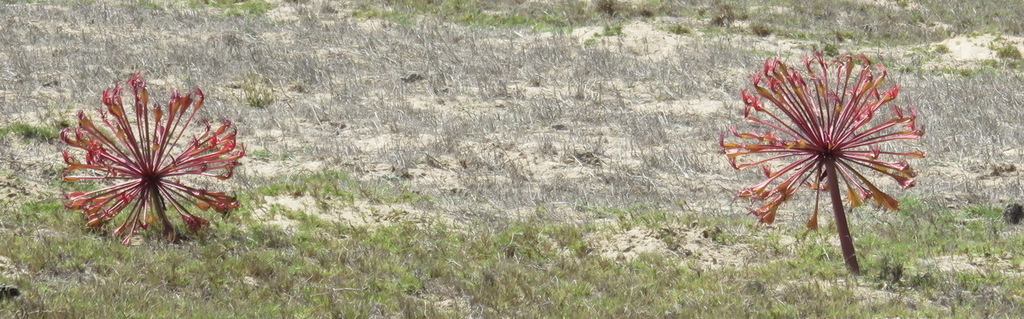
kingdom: Plantae
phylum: Tracheophyta
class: Liliopsida
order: Asparagales
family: Amaryllidaceae
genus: Brunsvigia
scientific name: Brunsvigia orientalis
